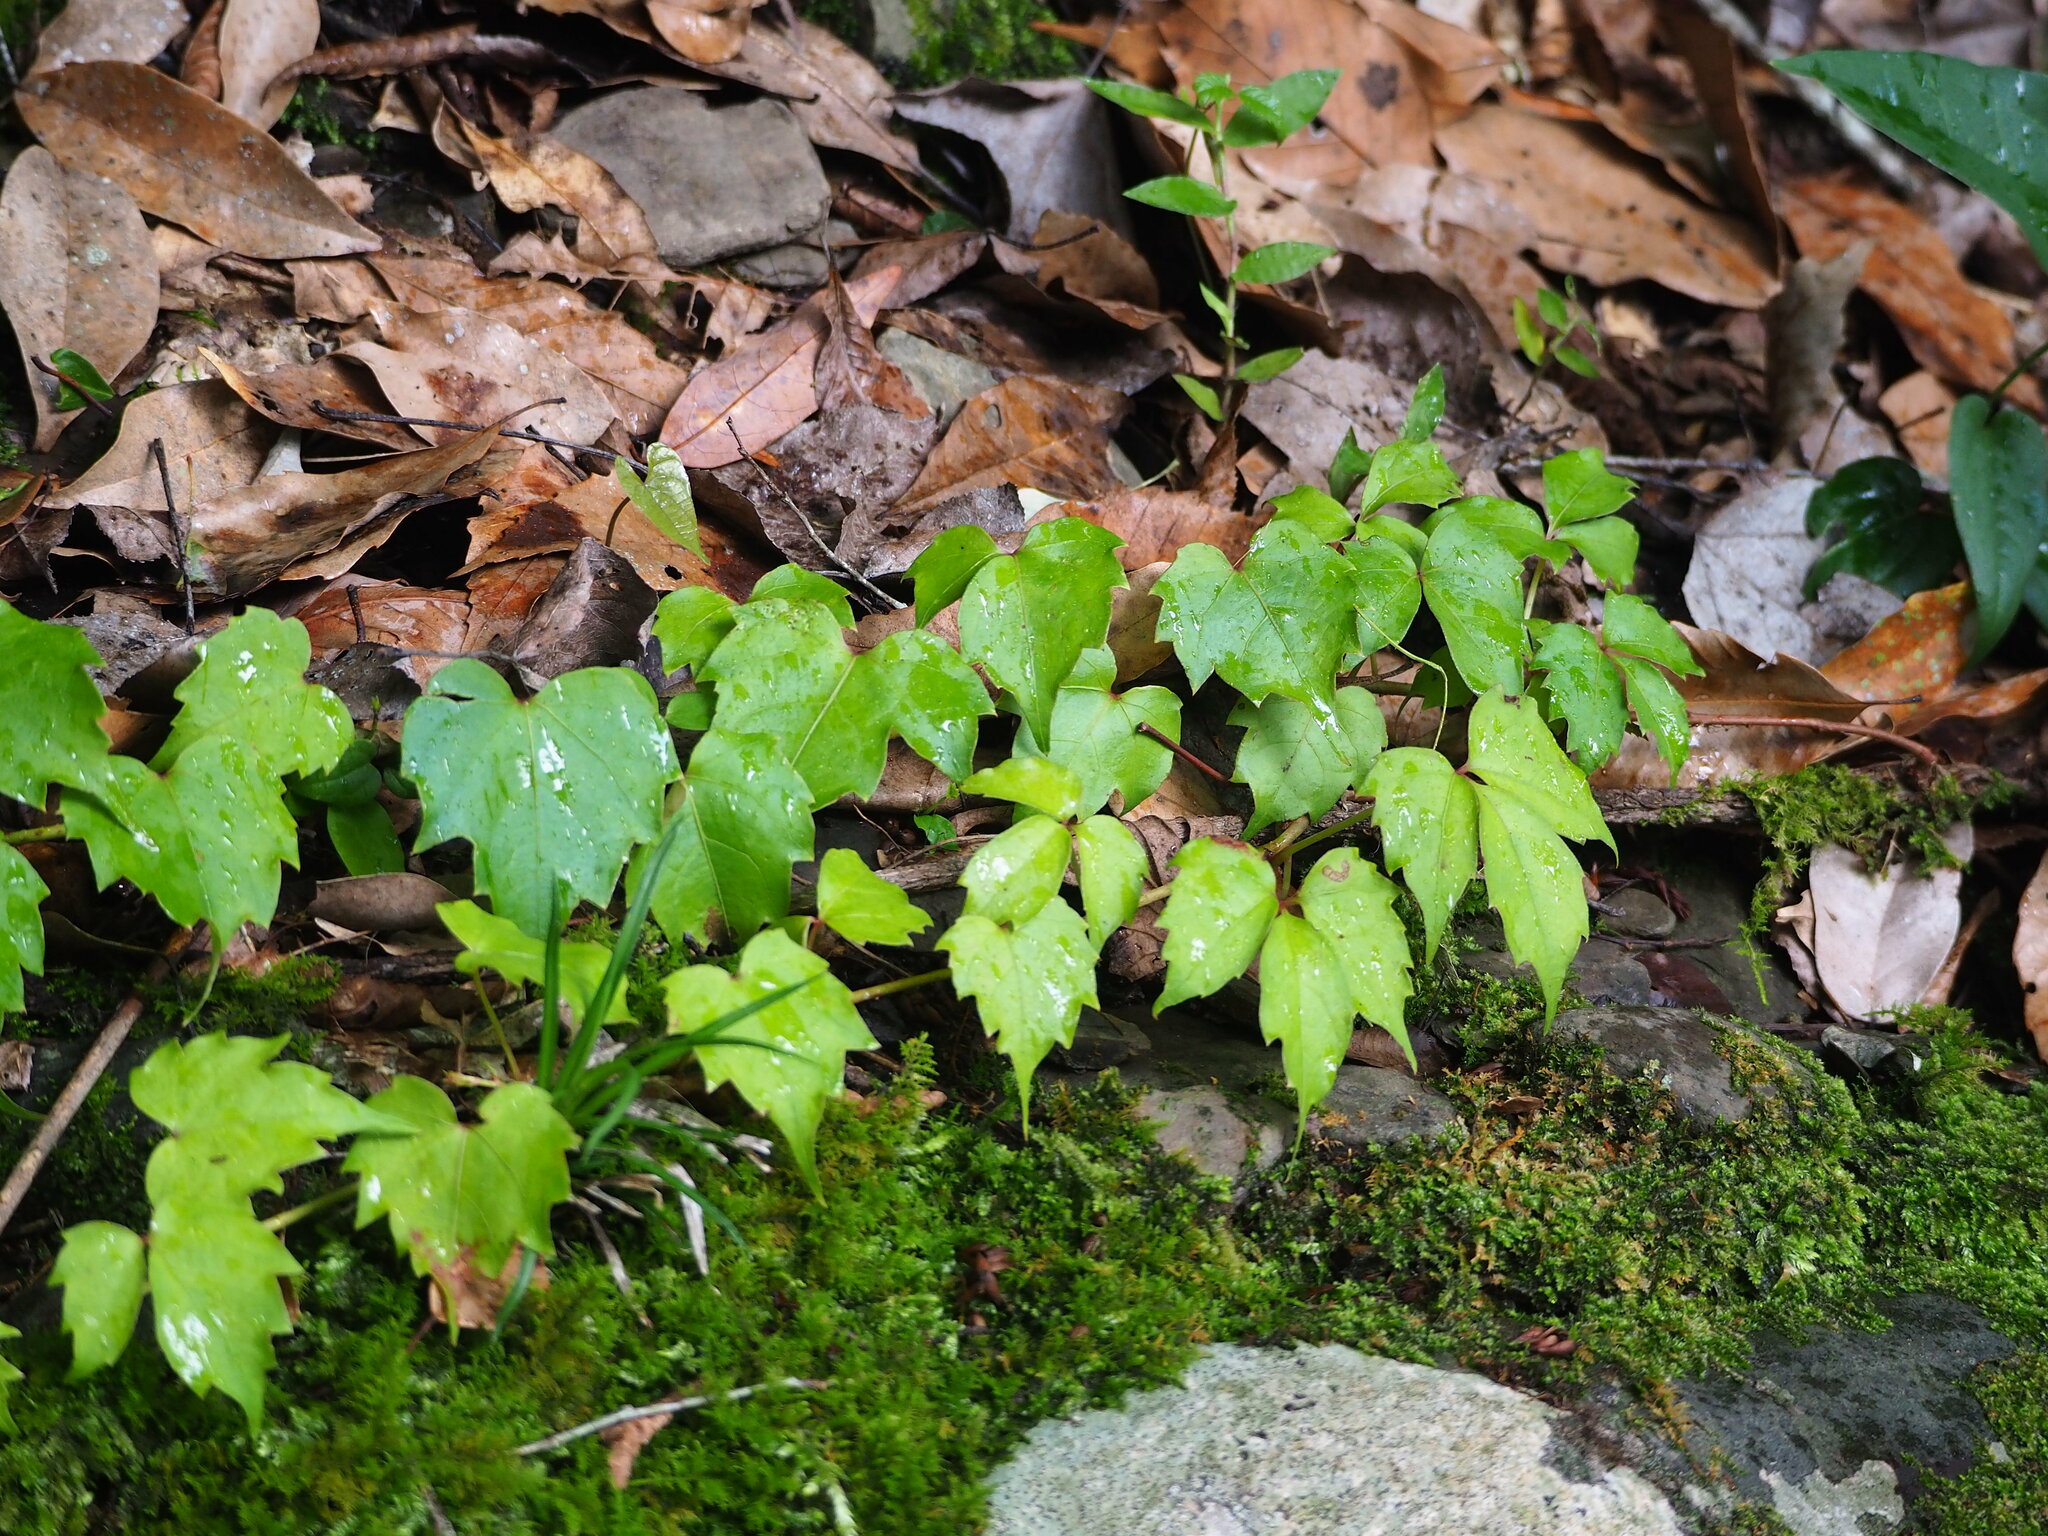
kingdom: Plantae
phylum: Tracheophyta
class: Magnoliopsida
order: Vitales
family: Vitaceae
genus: Parthenocissus
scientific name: Parthenocissus tricuspidata
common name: Boston ivy
